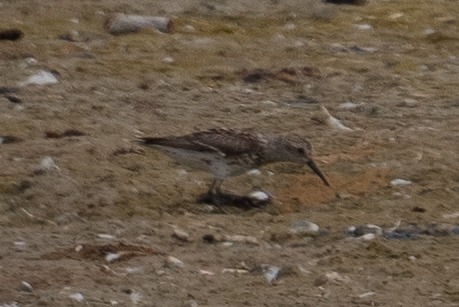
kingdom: Animalia
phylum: Chordata
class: Aves
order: Charadriiformes
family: Scolopacidae
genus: Calidris
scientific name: Calidris mauri
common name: Western sandpiper
